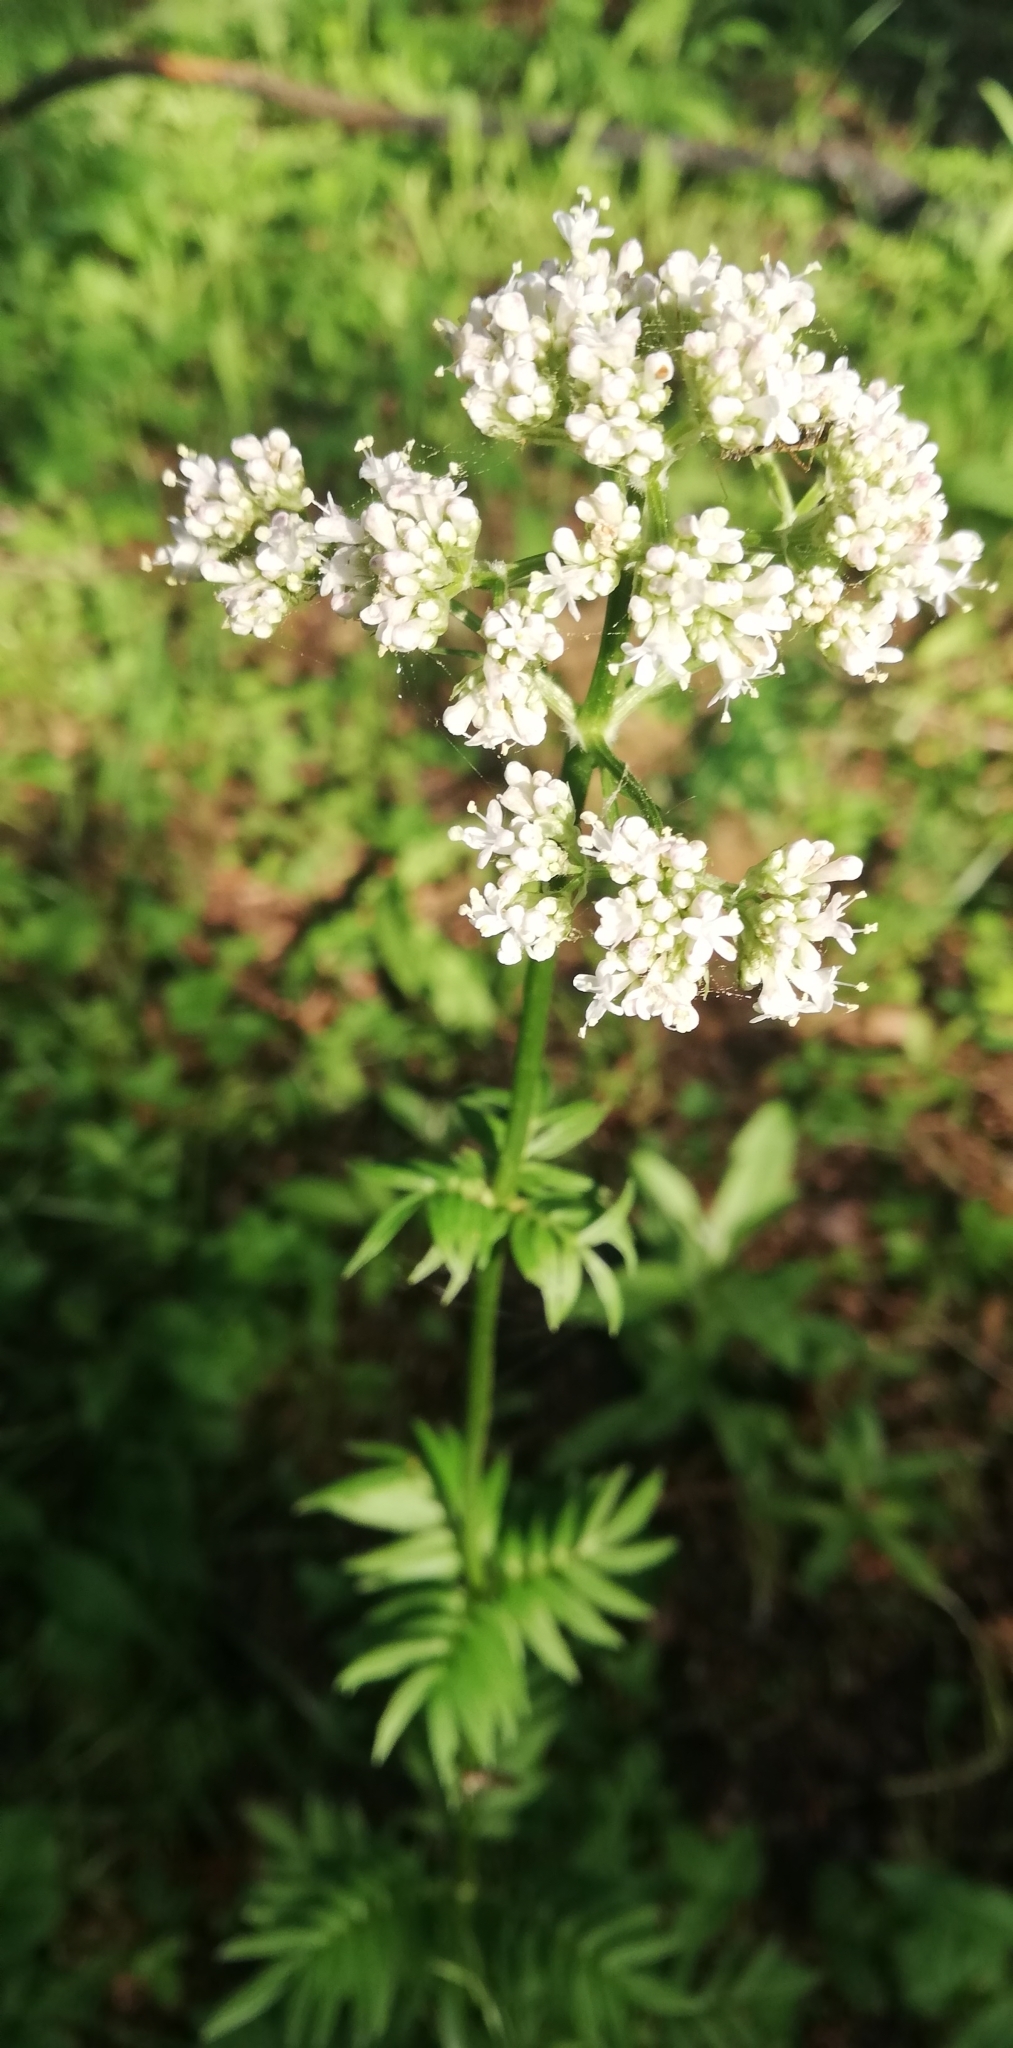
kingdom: Plantae
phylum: Tracheophyta
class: Magnoliopsida
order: Dipsacales
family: Caprifoliaceae
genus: Valeriana
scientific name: Valeriana officinalis
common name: Common valerian
